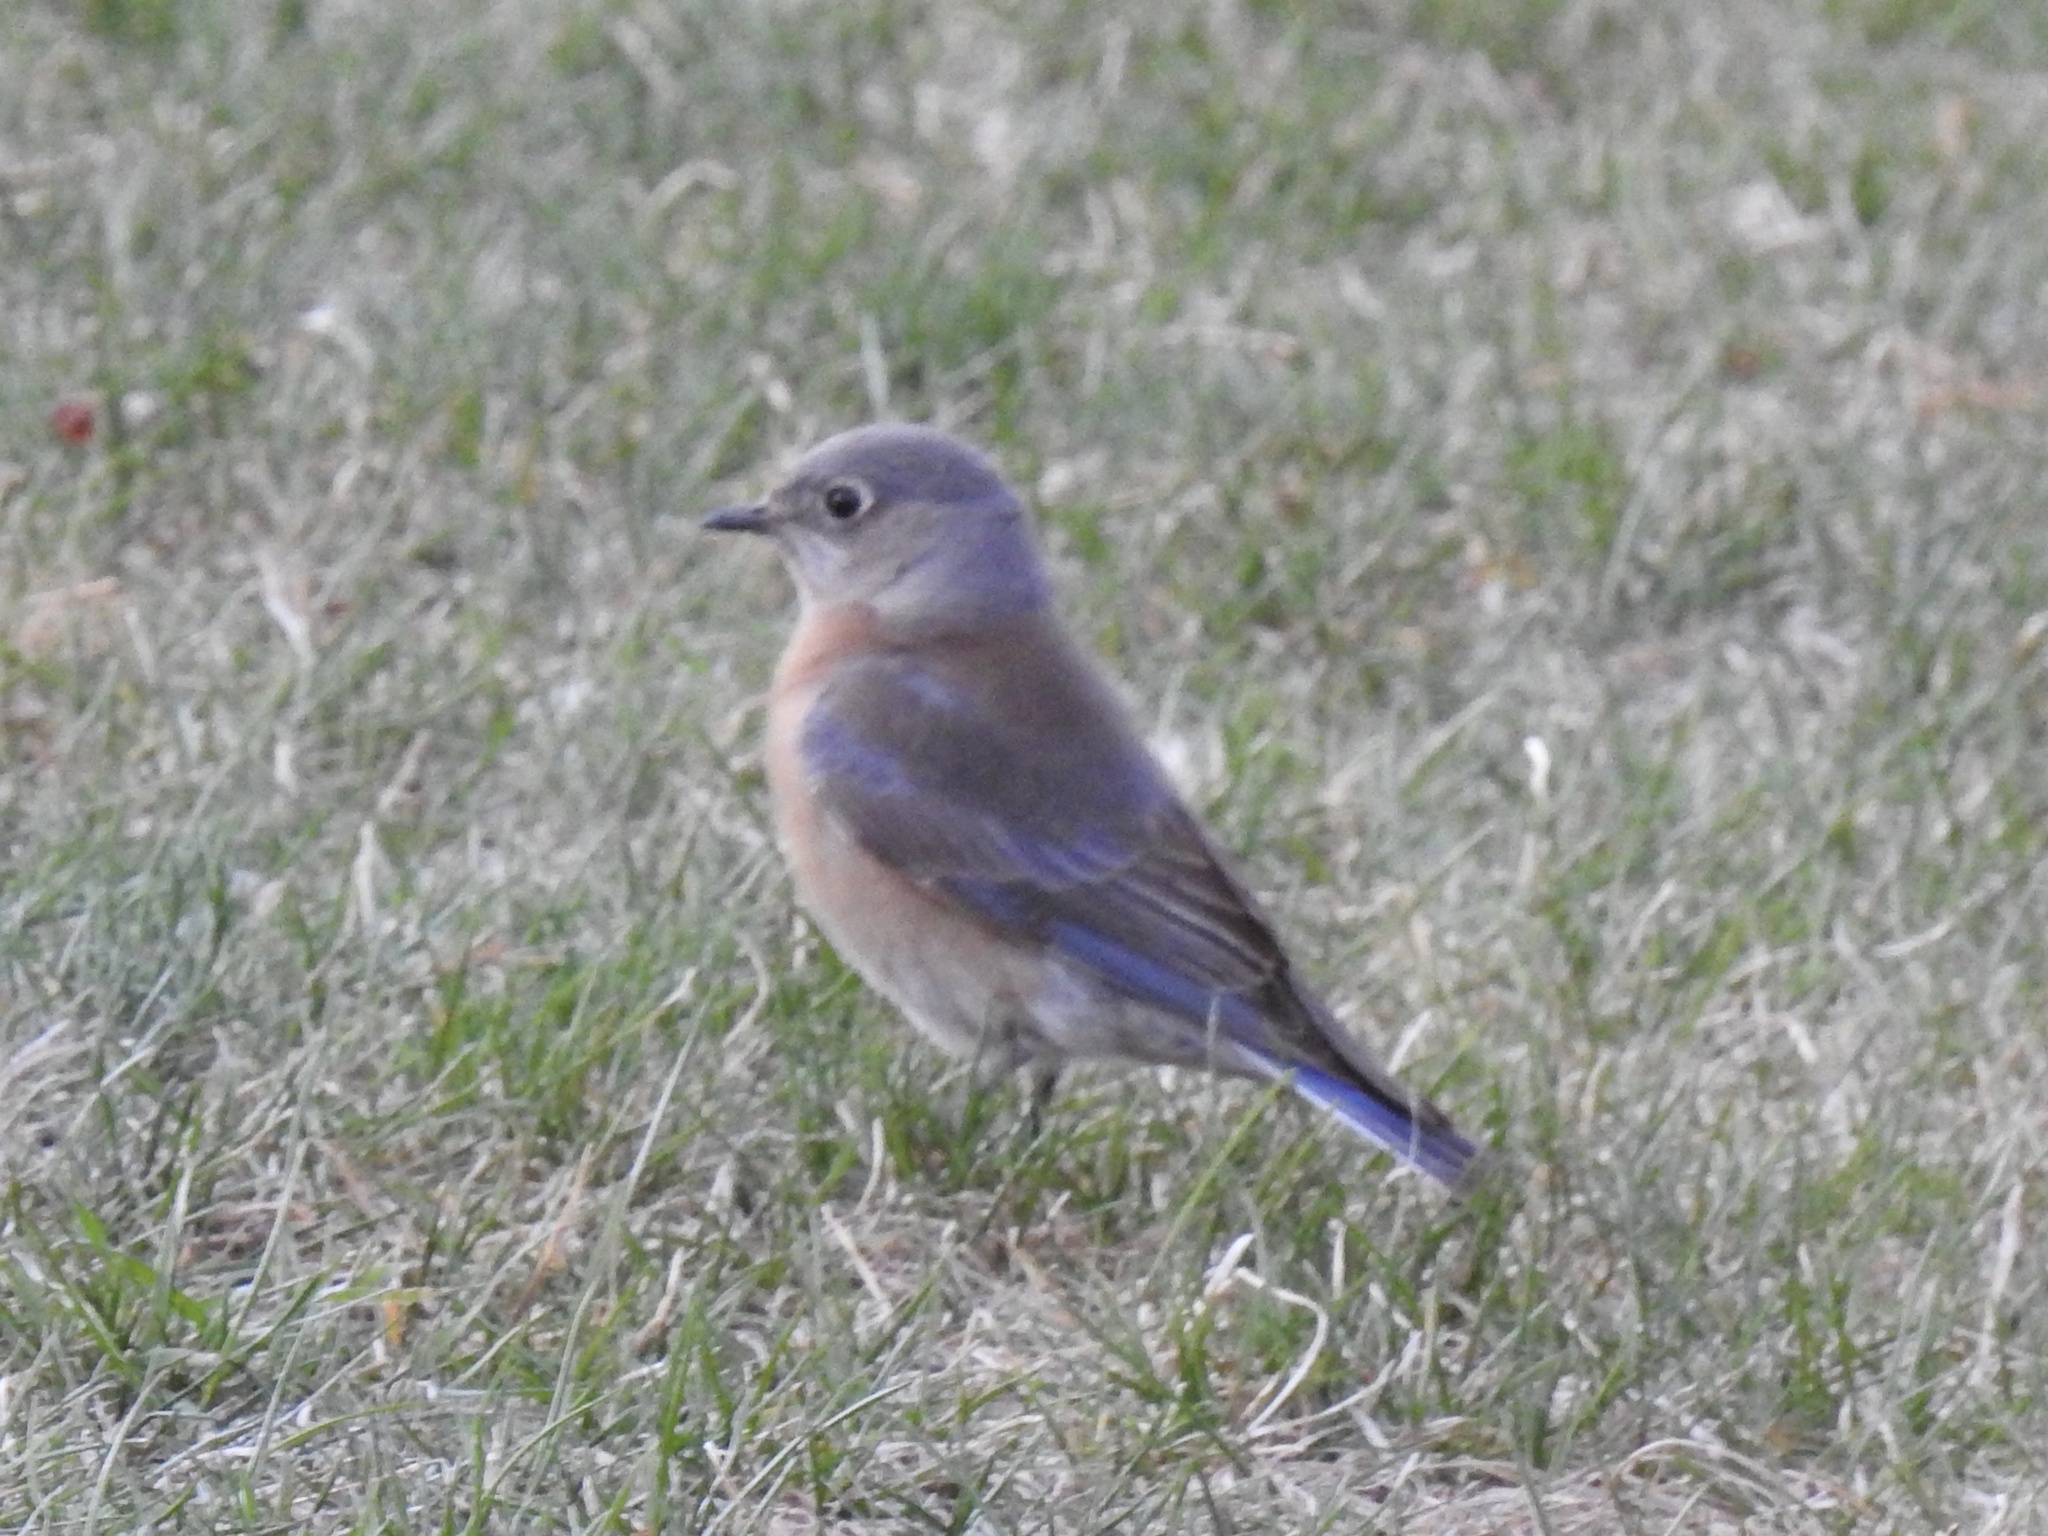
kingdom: Animalia
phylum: Chordata
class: Aves
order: Passeriformes
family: Turdidae
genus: Sialia
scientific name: Sialia mexicana
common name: Western bluebird
